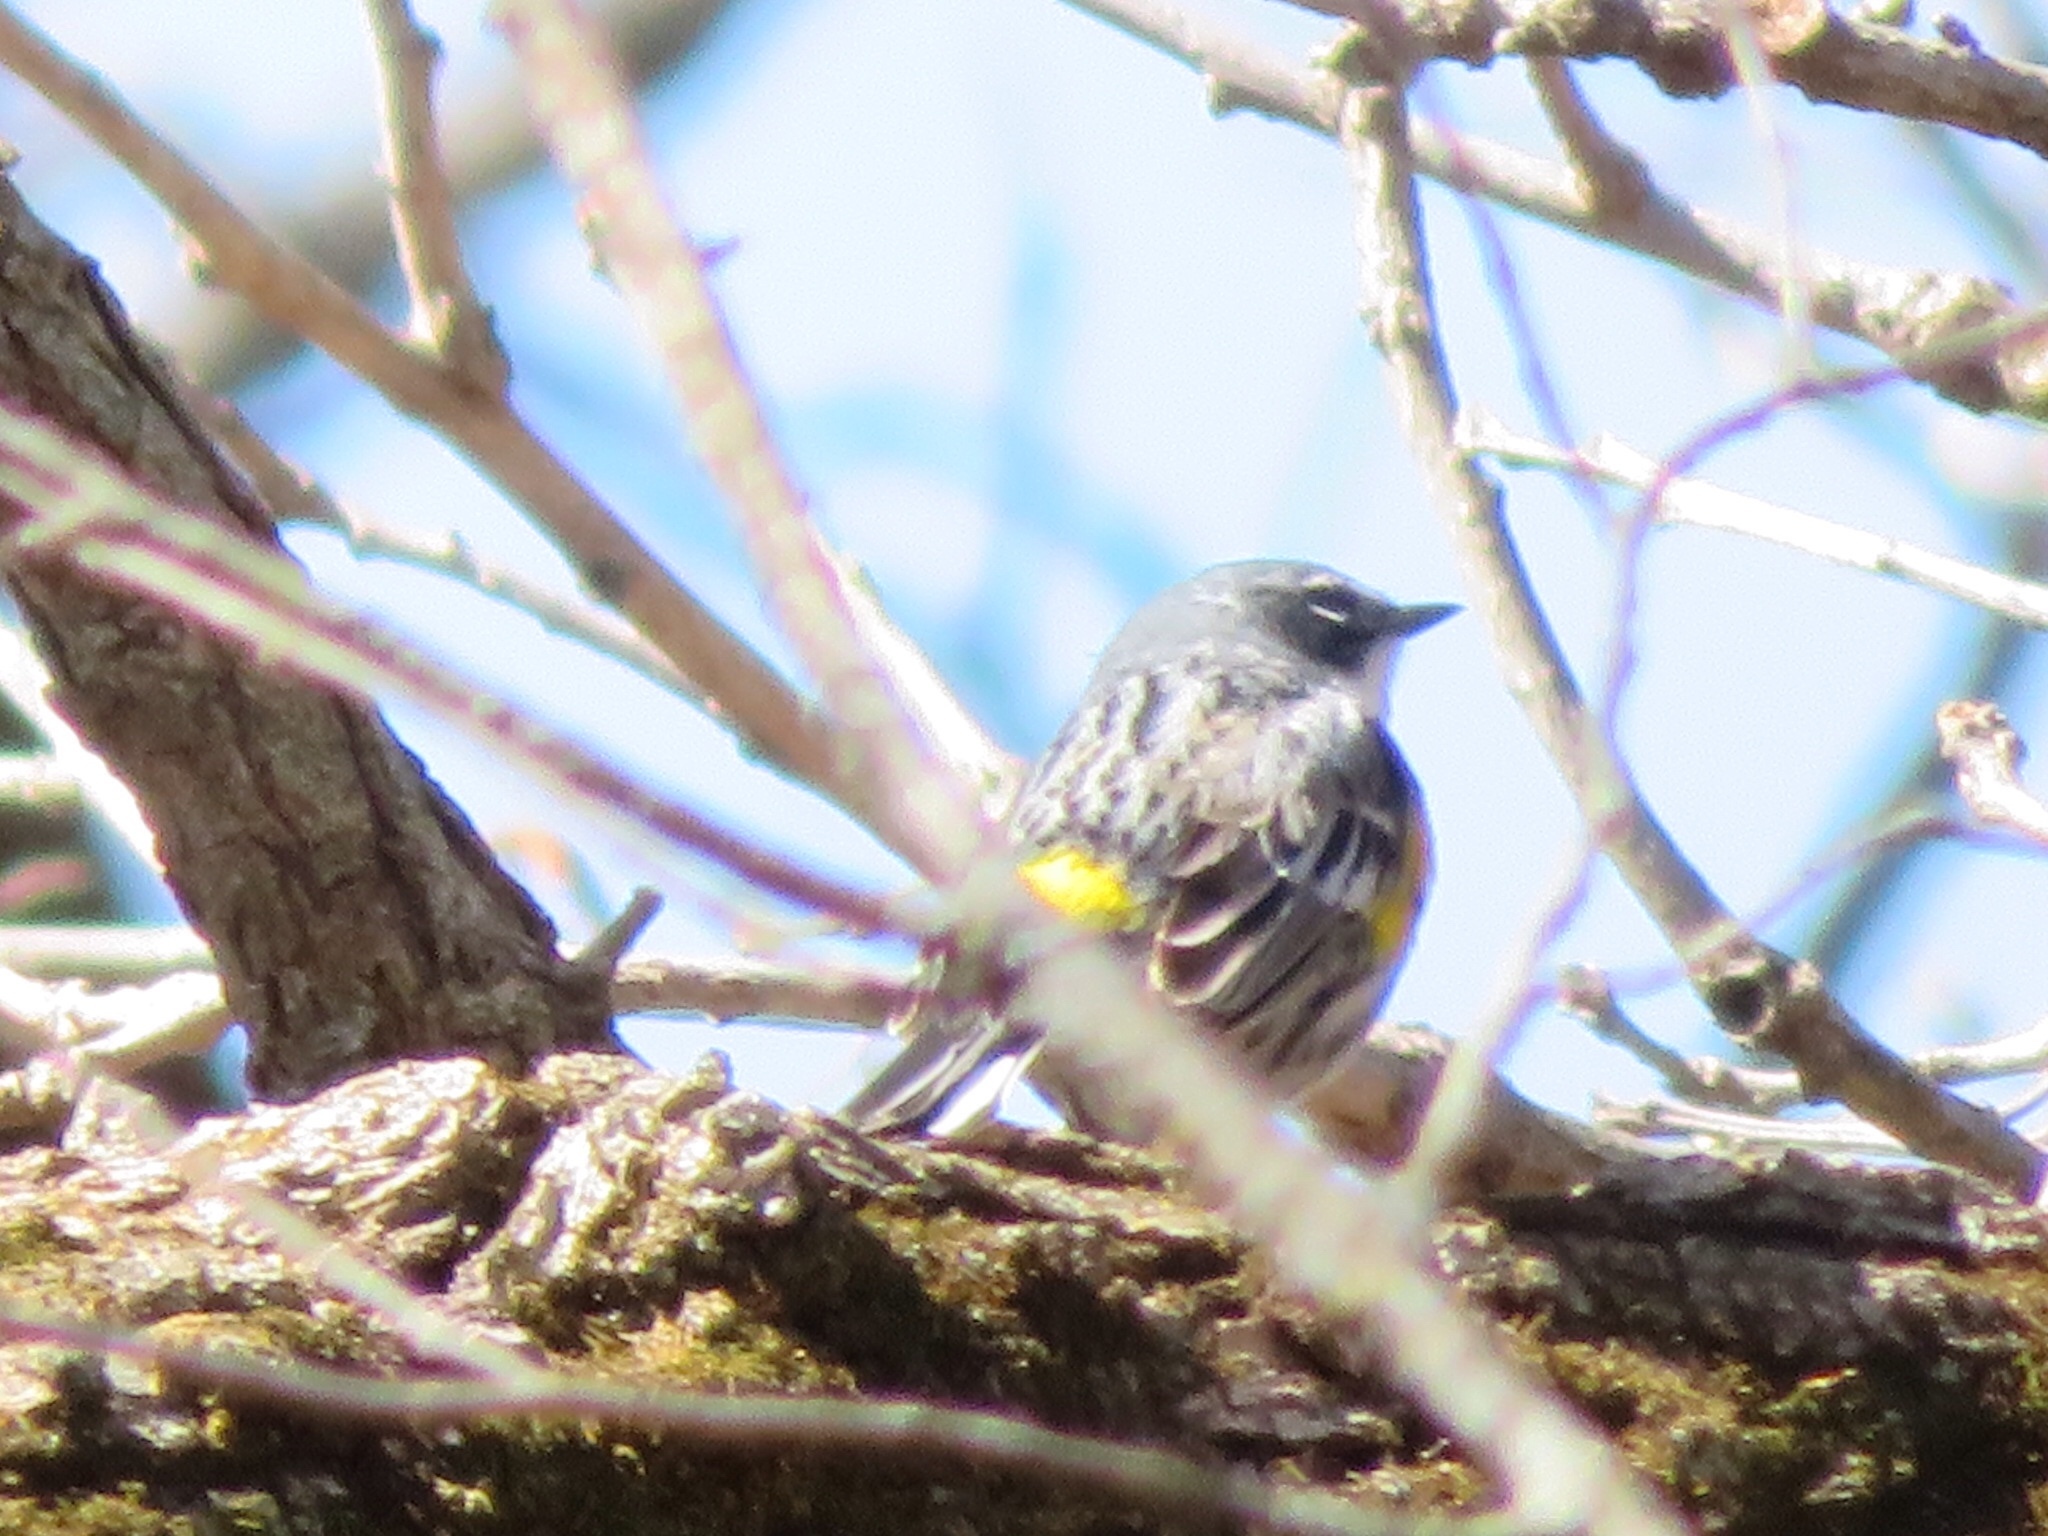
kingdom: Animalia
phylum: Chordata
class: Aves
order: Passeriformes
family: Parulidae
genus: Setophaga
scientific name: Setophaga coronata
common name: Myrtle warbler
